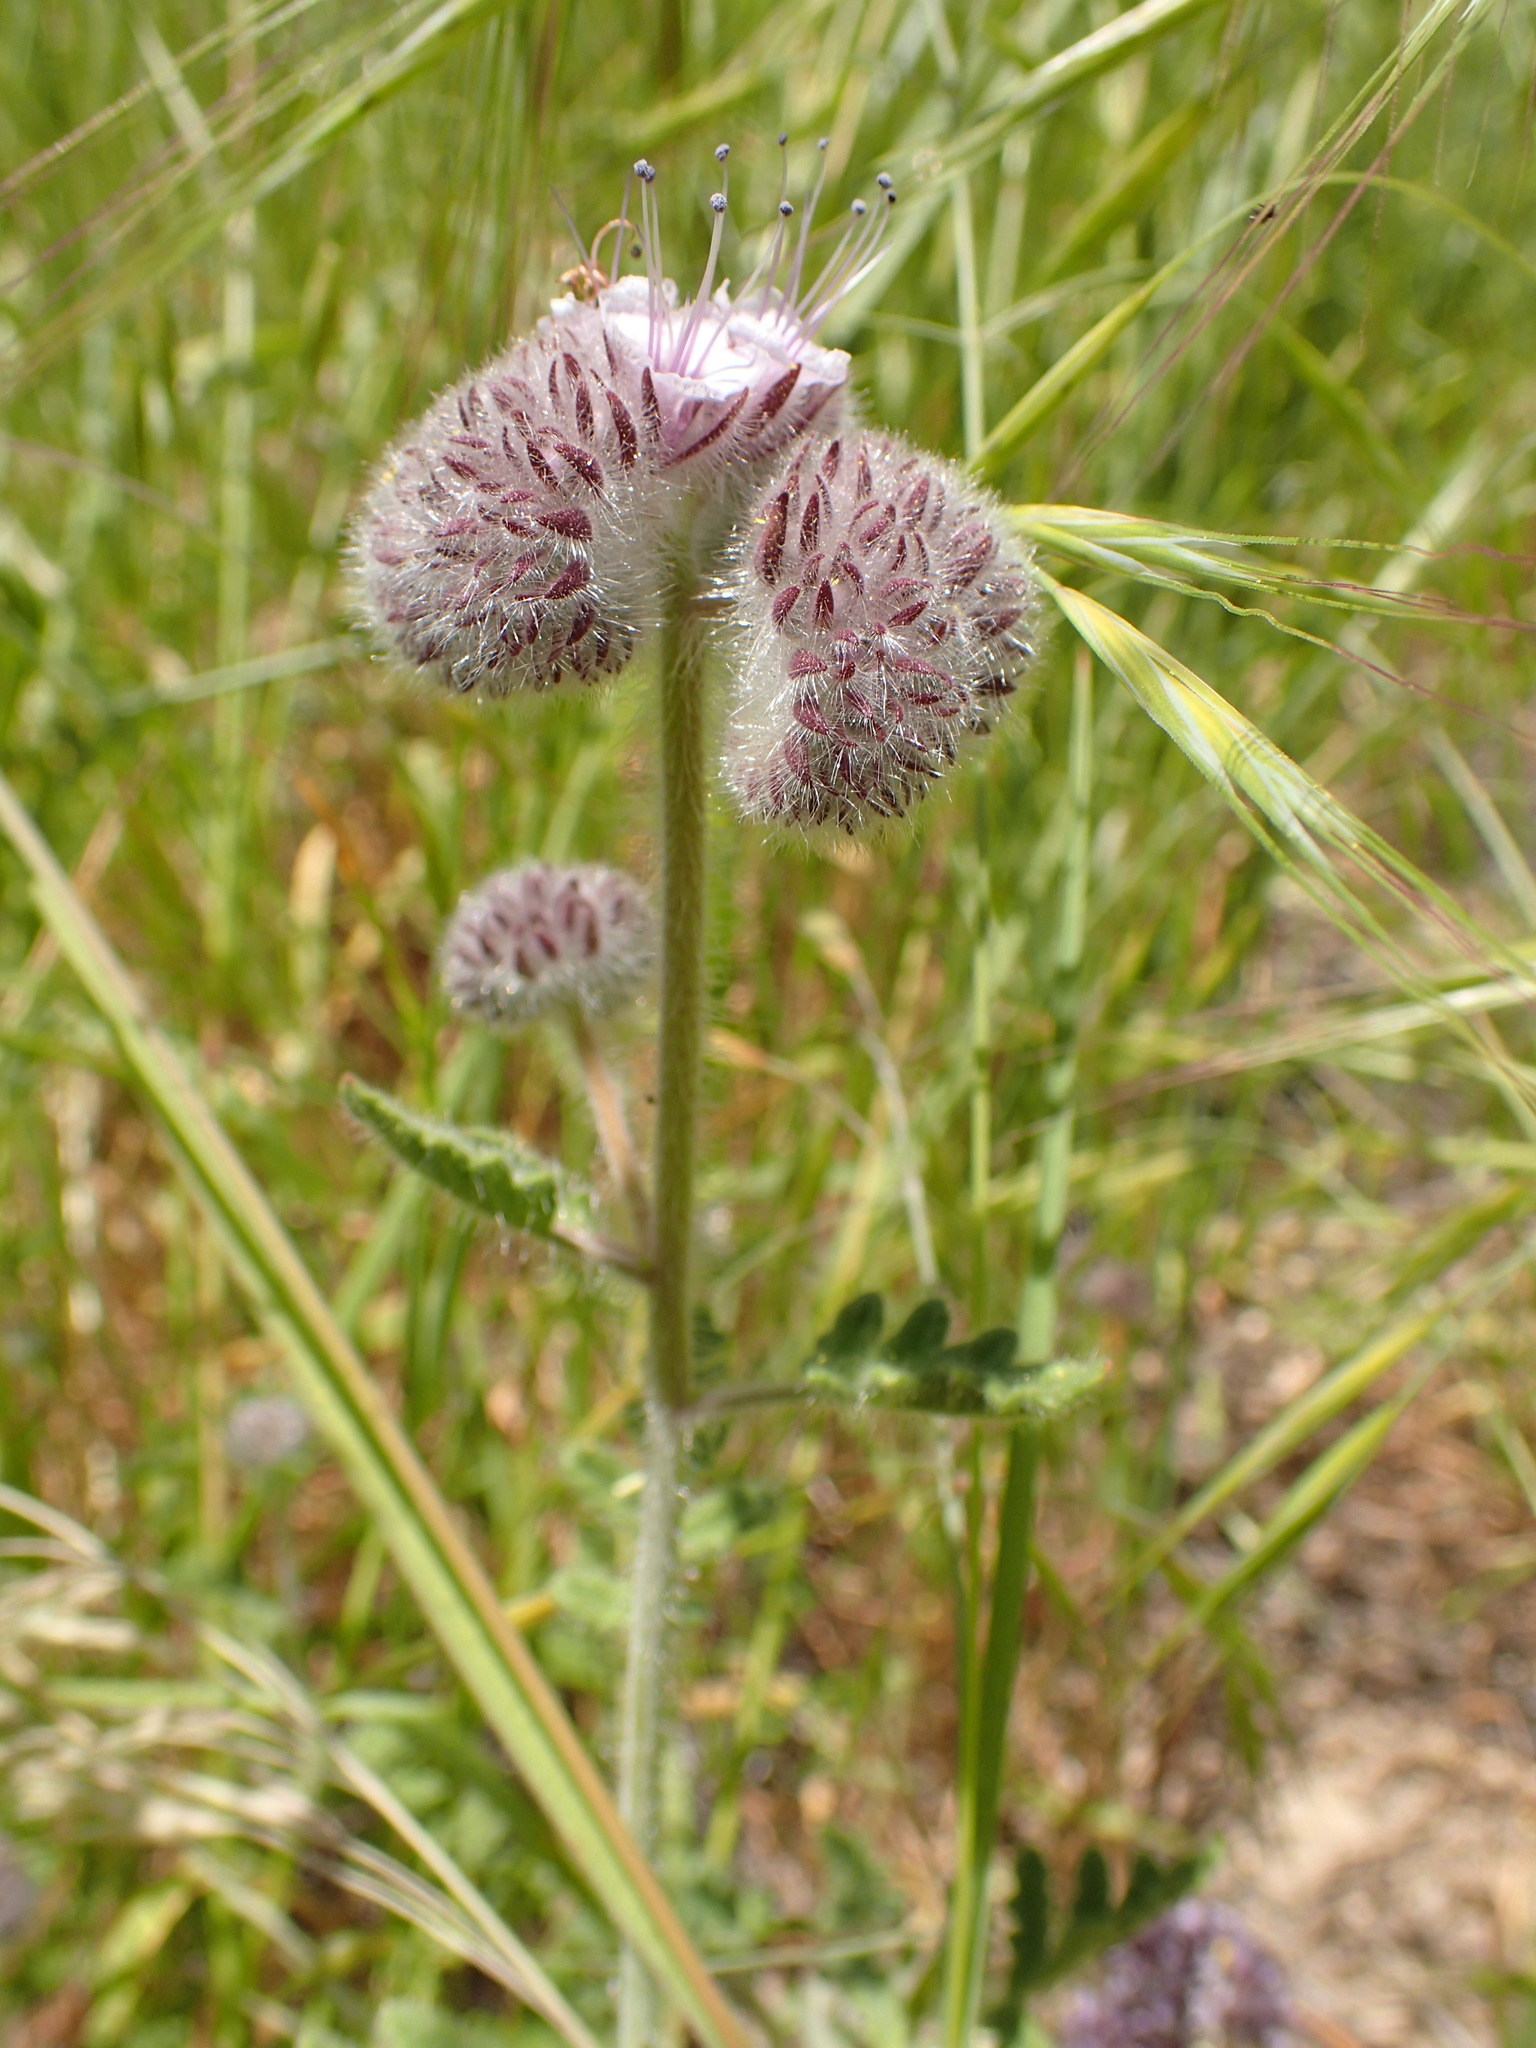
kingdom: Plantae
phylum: Tracheophyta
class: Magnoliopsida
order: Boraginales
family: Hydrophyllaceae
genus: Phacelia
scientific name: Phacelia hubbyi
